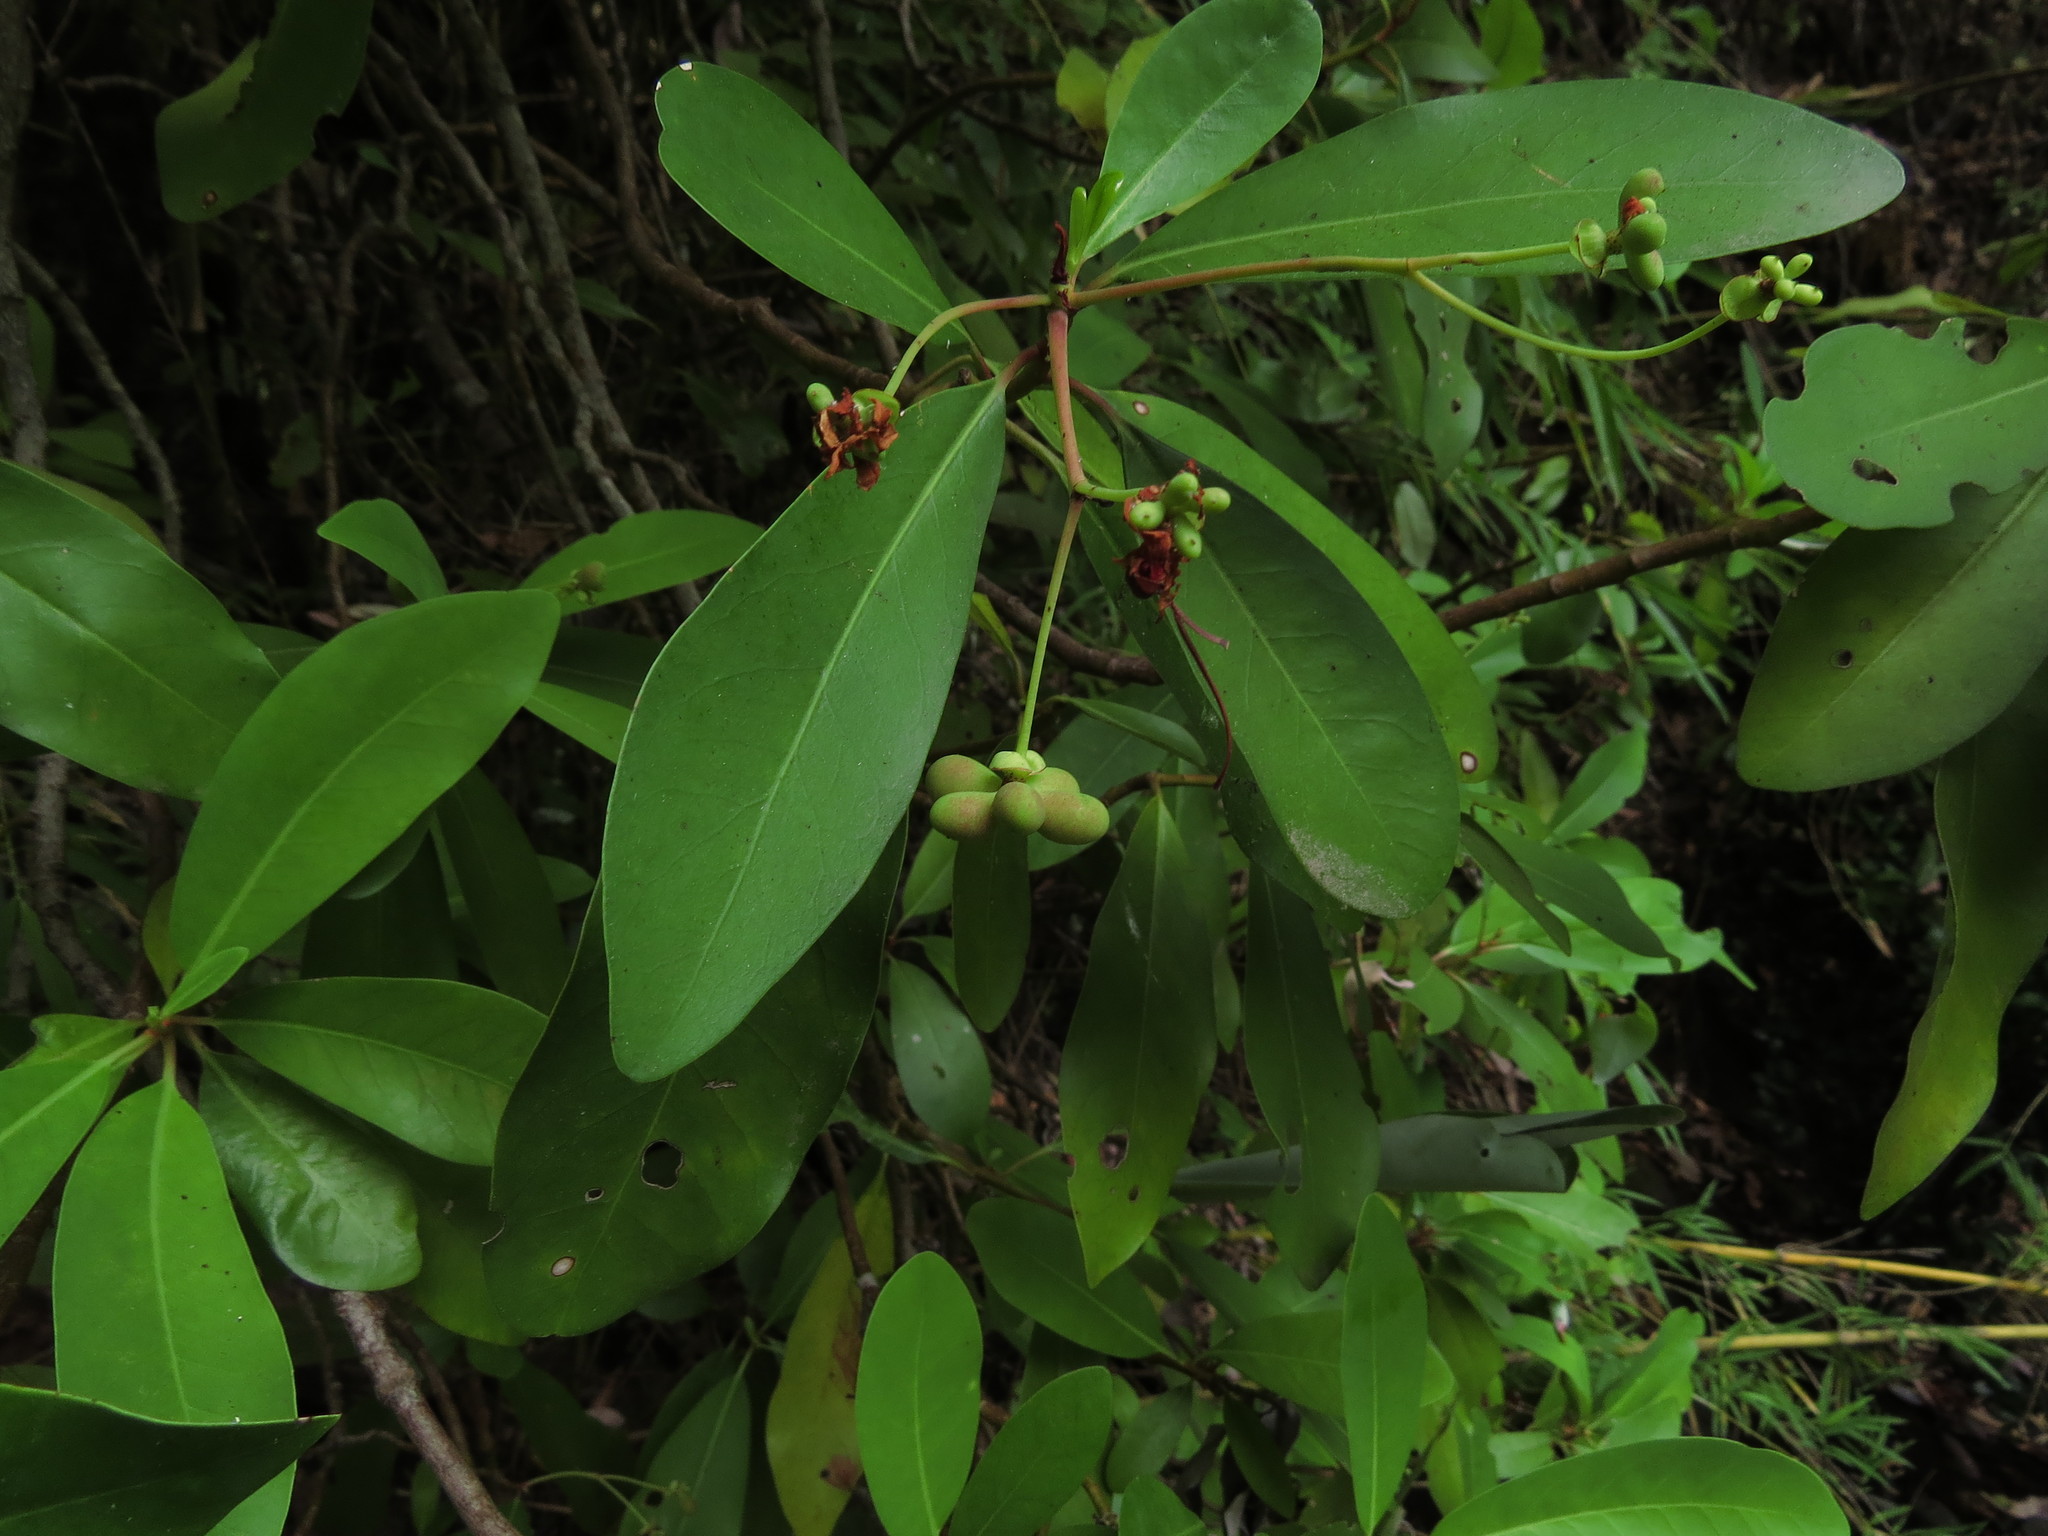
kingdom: Plantae
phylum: Tracheophyta
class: Magnoliopsida
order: Canellales
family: Winteraceae
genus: Drimys
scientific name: Drimys winteri
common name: Winter's-bark
